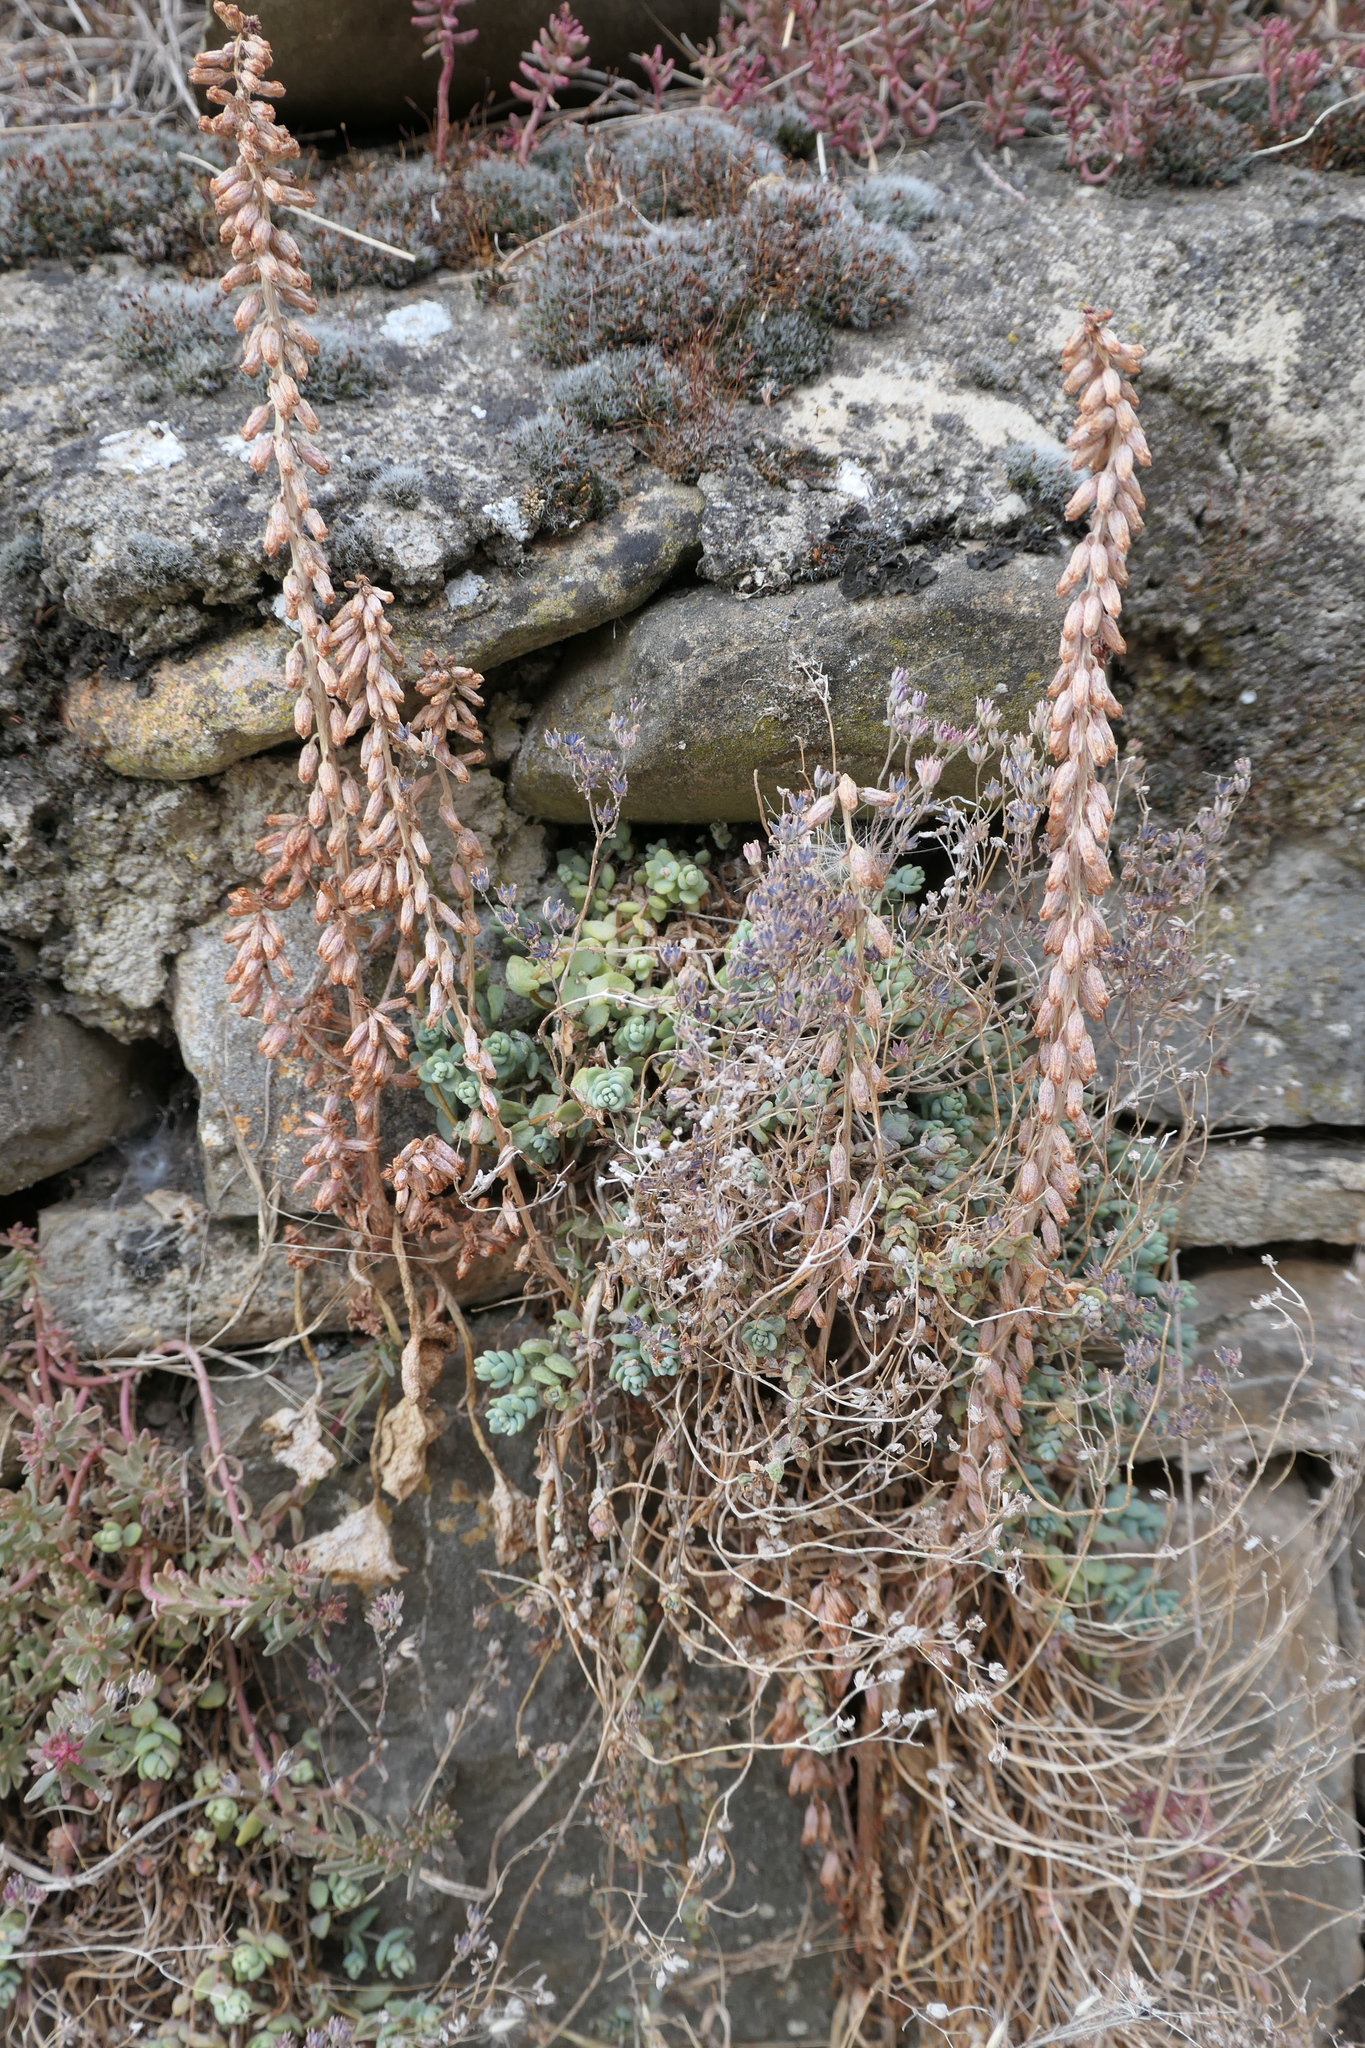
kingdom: Plantae
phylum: Tracheophyta
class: Magnoliopsida
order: Saxifragales
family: Crassulaceae
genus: Sedum
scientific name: Sedum dasyphyllum
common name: Thick-leaf stonecrop
